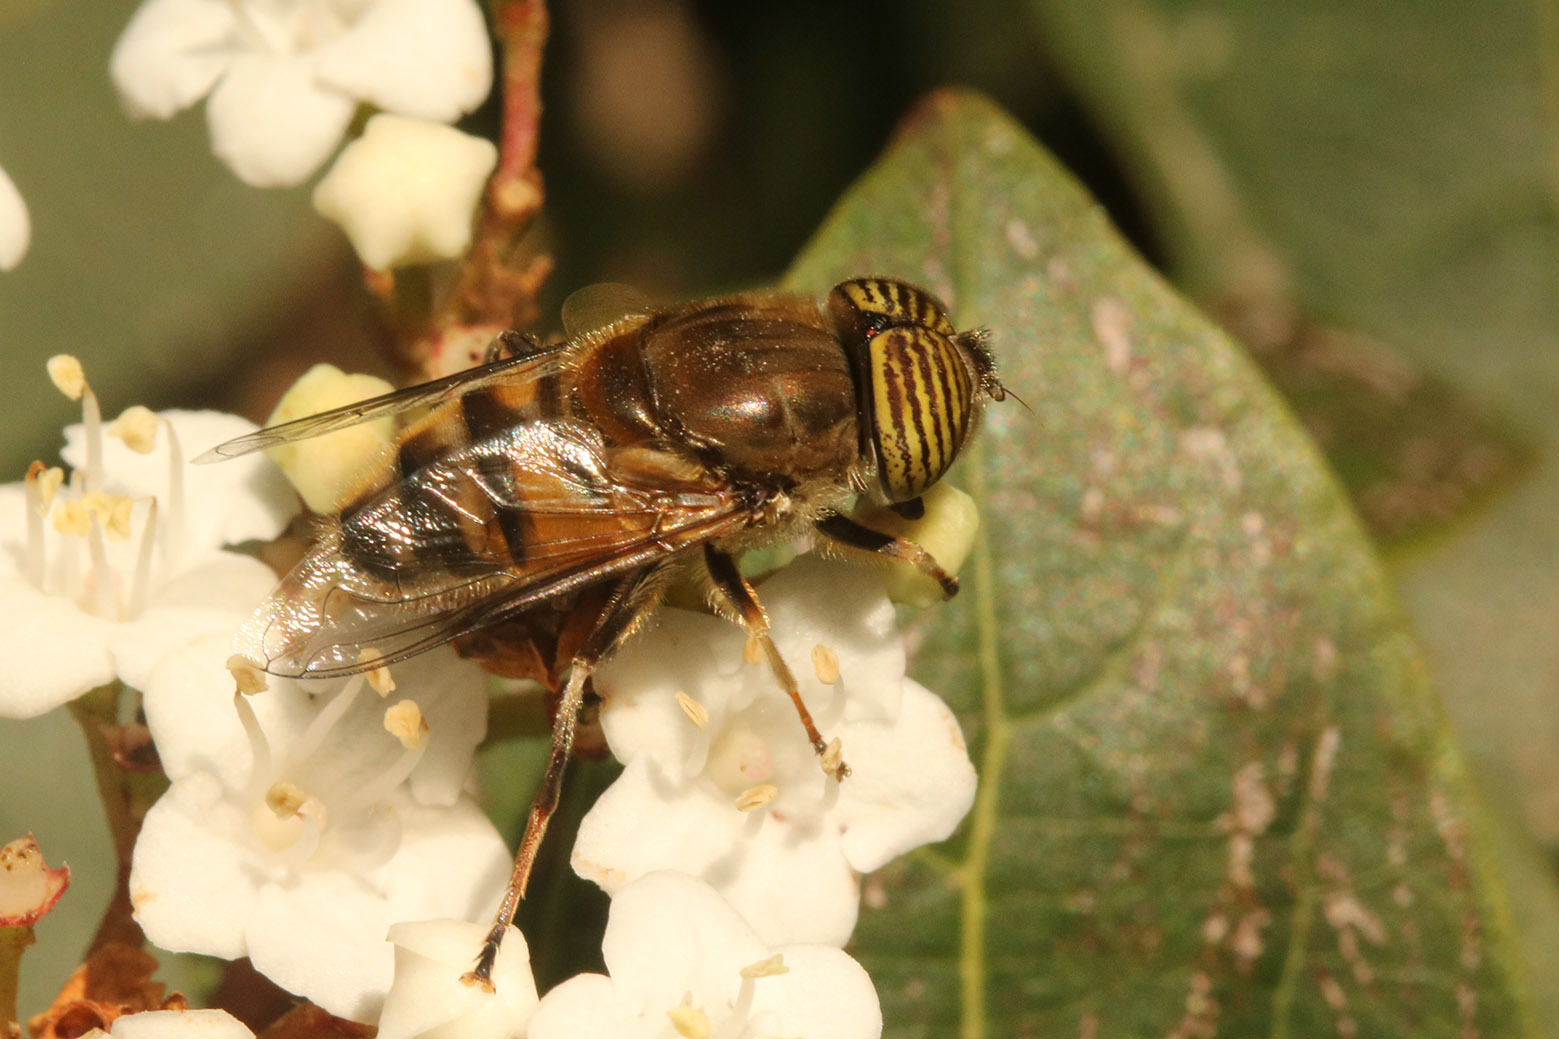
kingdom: Animalia
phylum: Arthropoda
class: Insecta
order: Diptera
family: Syrphidae
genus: Eristalinus
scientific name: Eristalinus taeniops
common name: Syrphid fly
